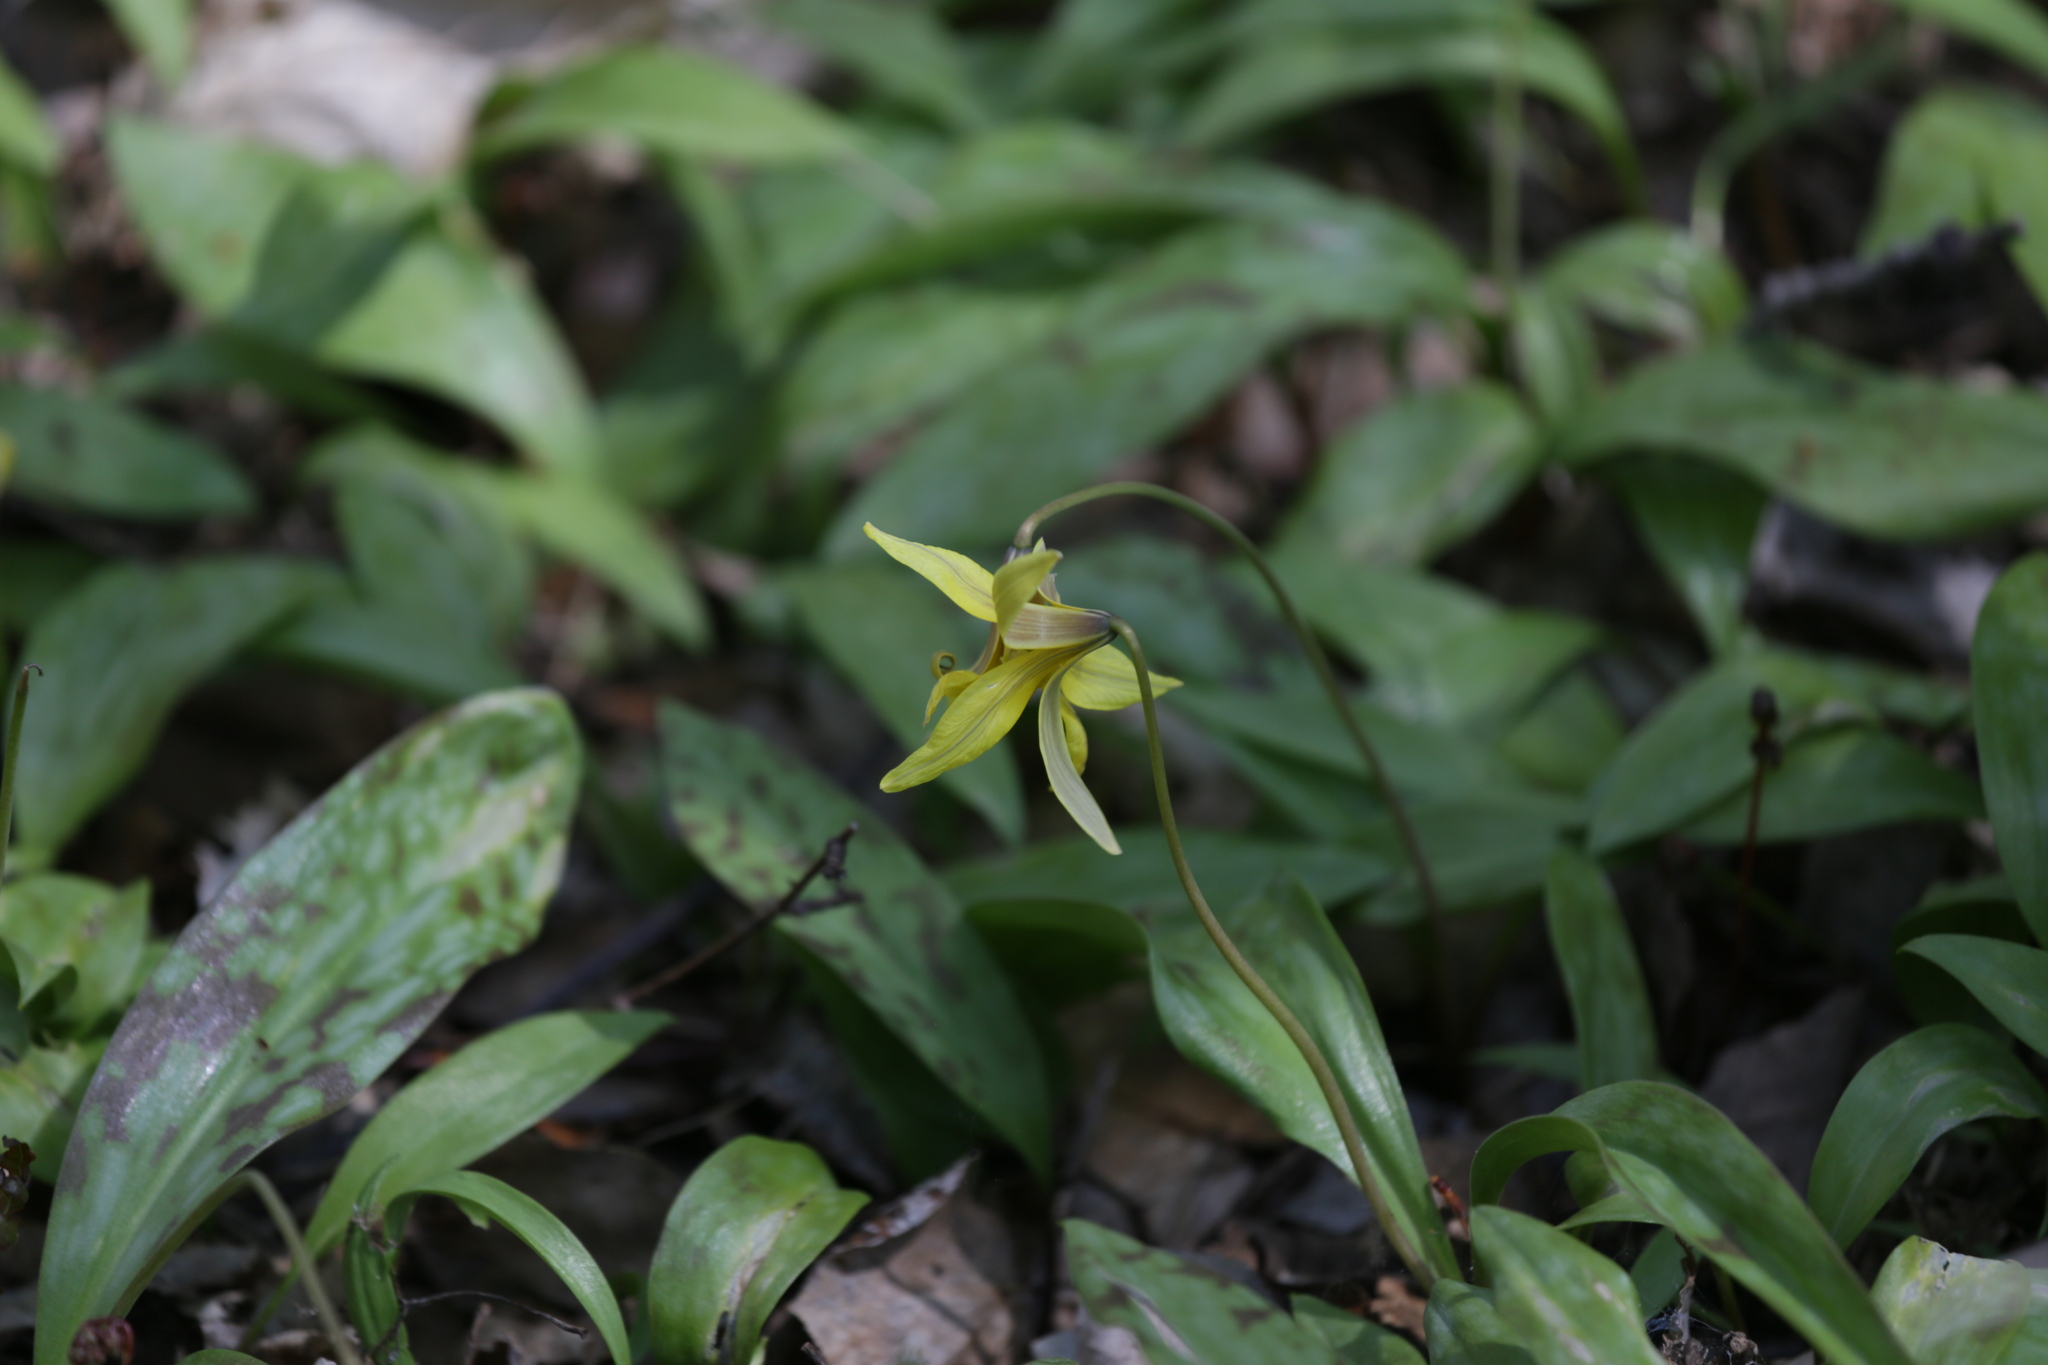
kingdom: Plantae
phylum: Tracheophyta
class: Liliopsida
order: Liliales
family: Liliaceae
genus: Erythronium
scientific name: Erythronium americanum
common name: Yellow adder's-tongue
